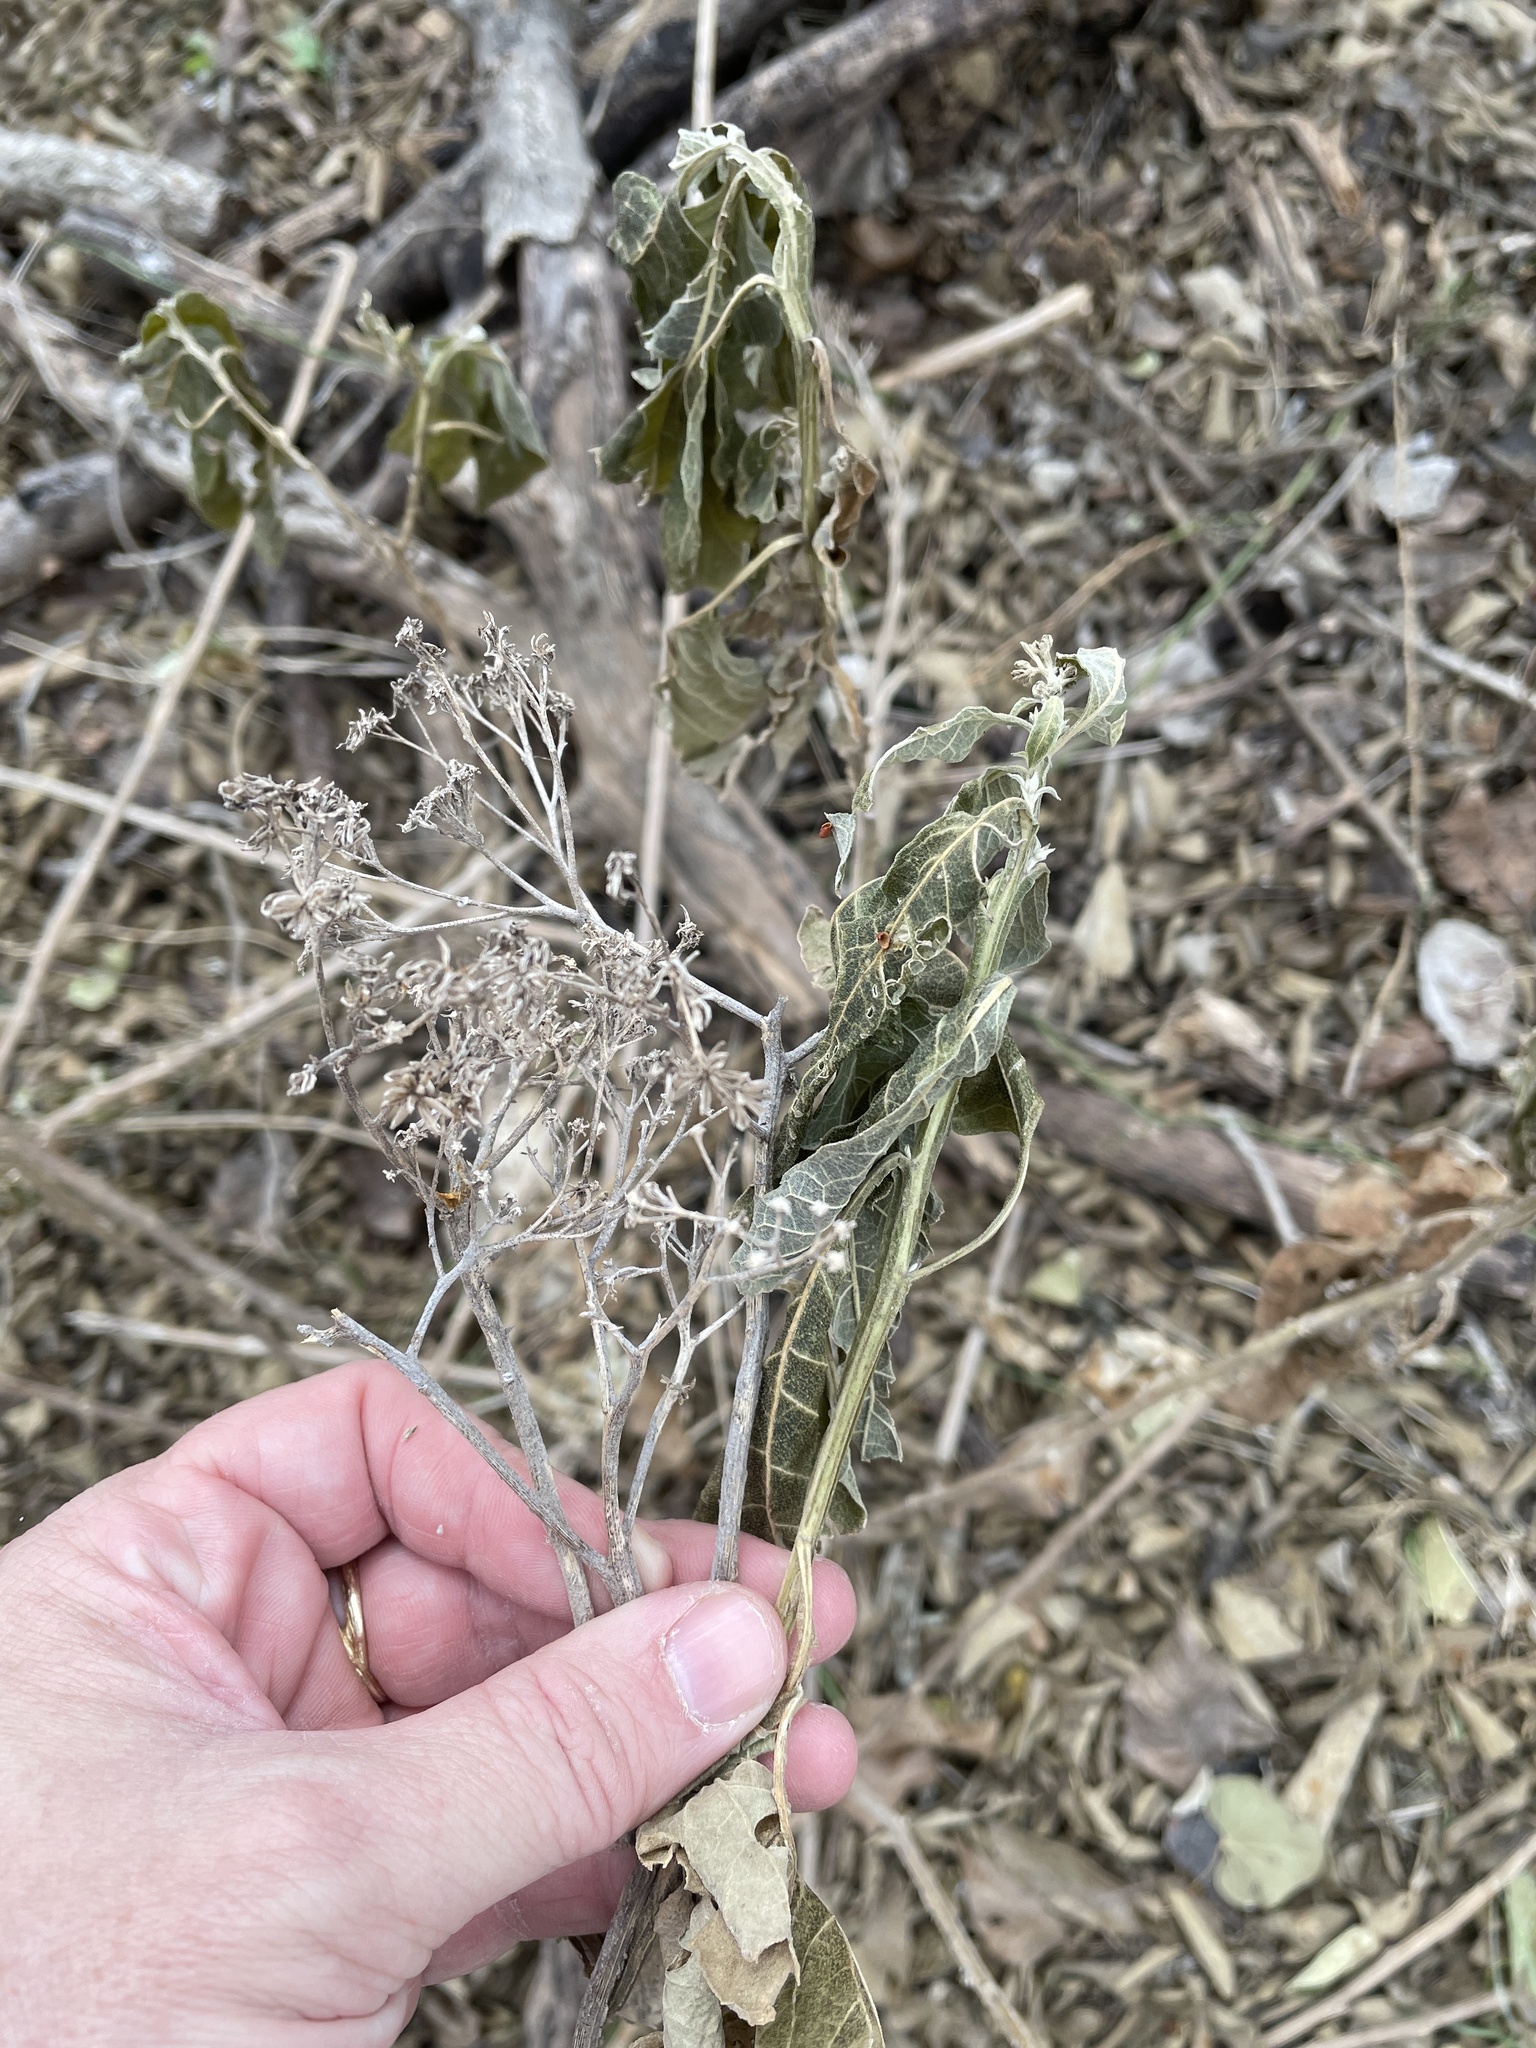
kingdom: Plantae
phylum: Tracheophyta
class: Magnoliopsida
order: Asterales
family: Asteraceae
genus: Verbesina
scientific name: Verbesina virginica
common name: Frostweed
